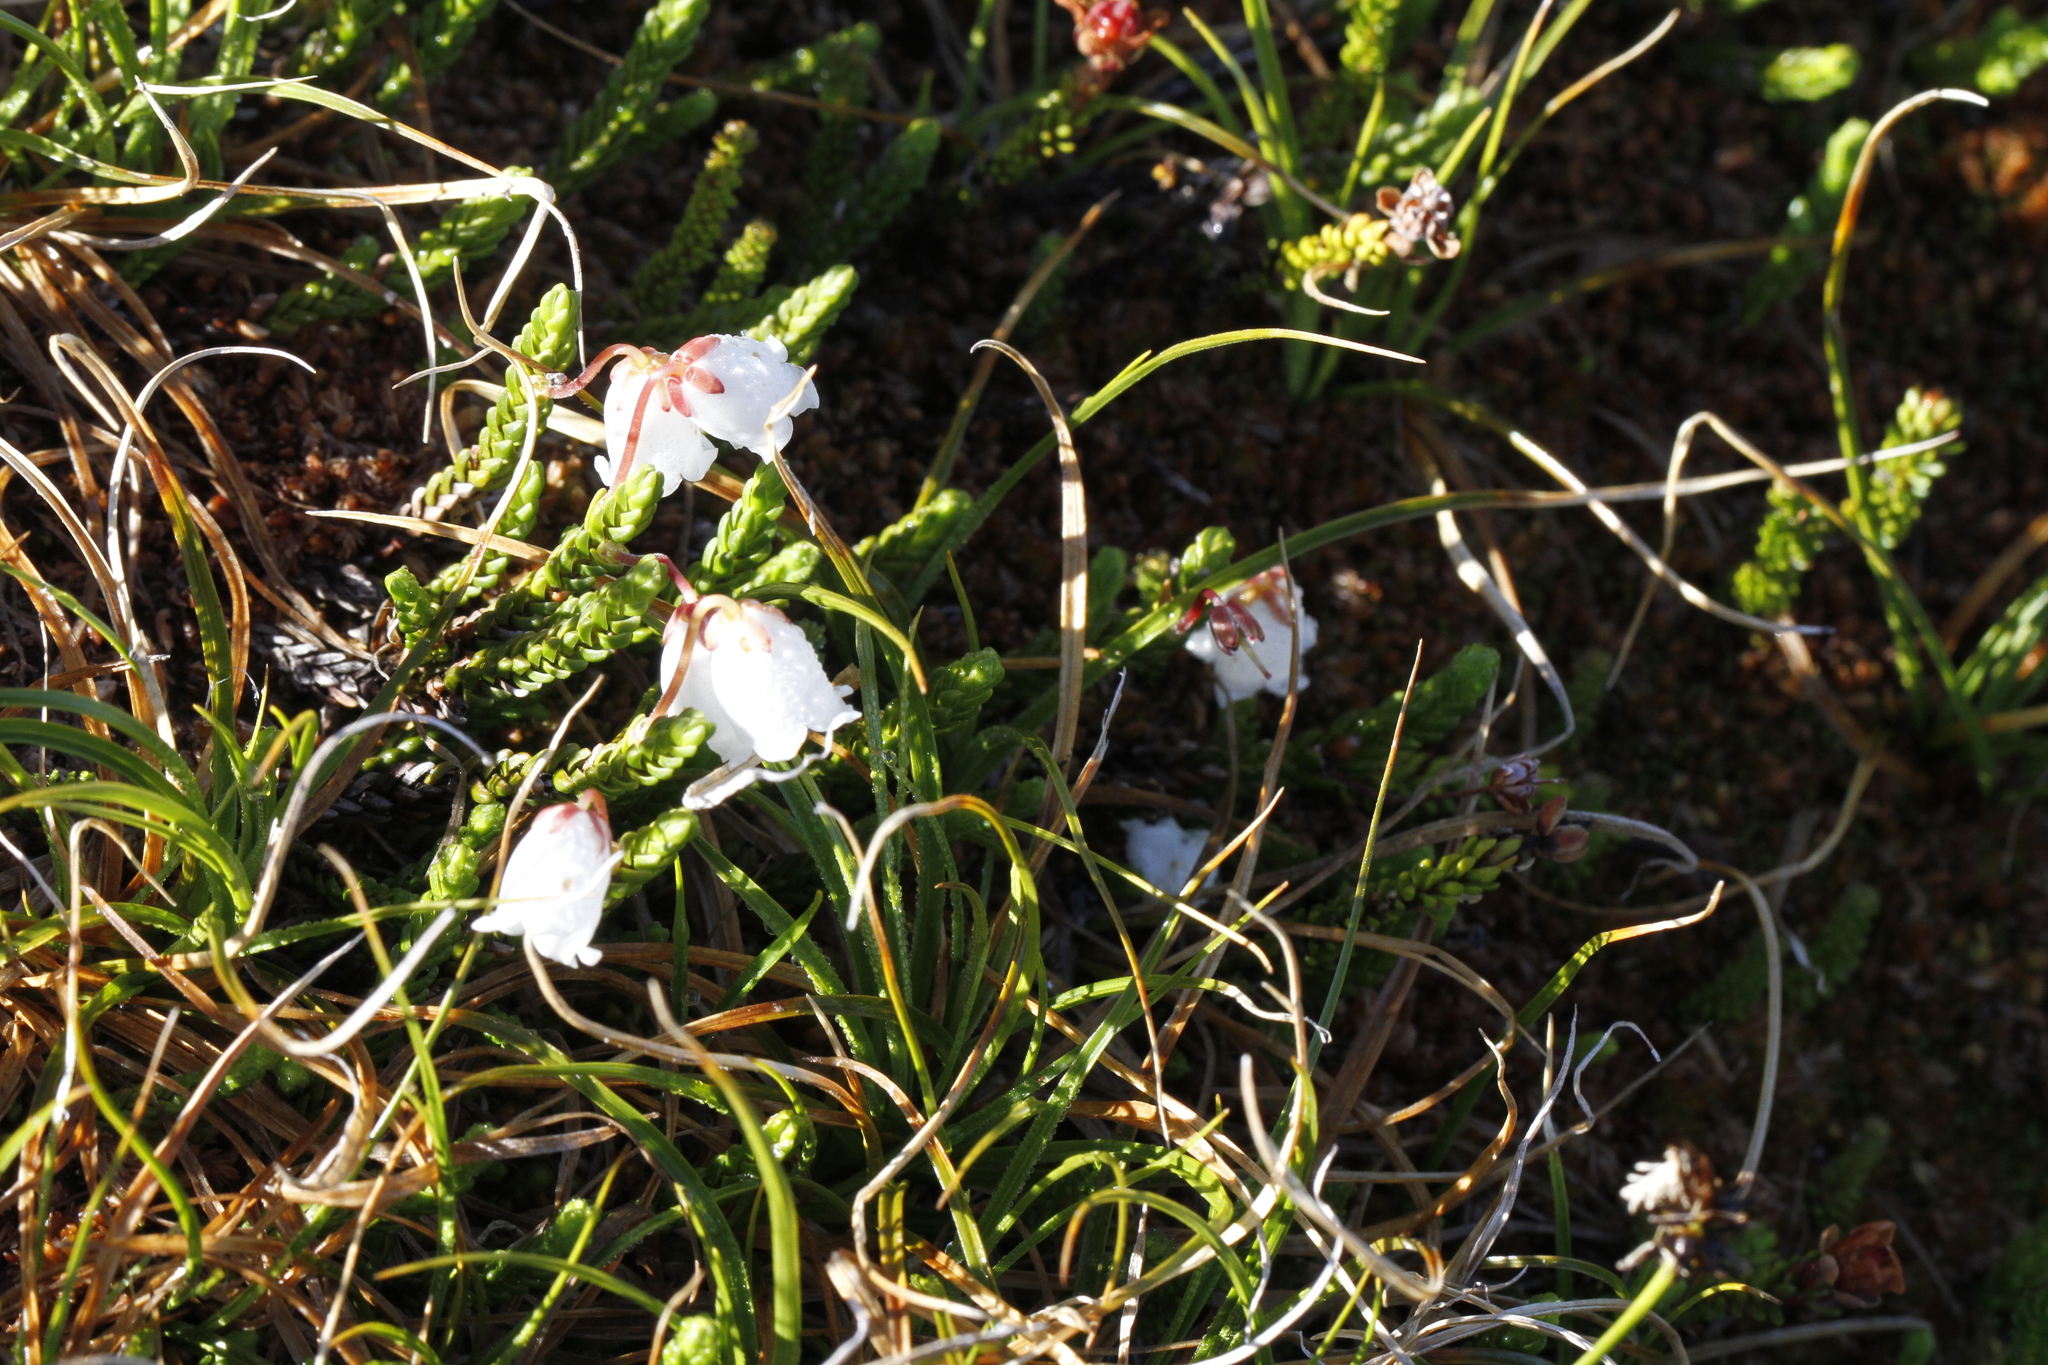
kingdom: Plantae
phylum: Tracheophyta
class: Magnoliopsida
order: Ericales
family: Ericaceae
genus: Cassiope
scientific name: Cassiope mertensiana
